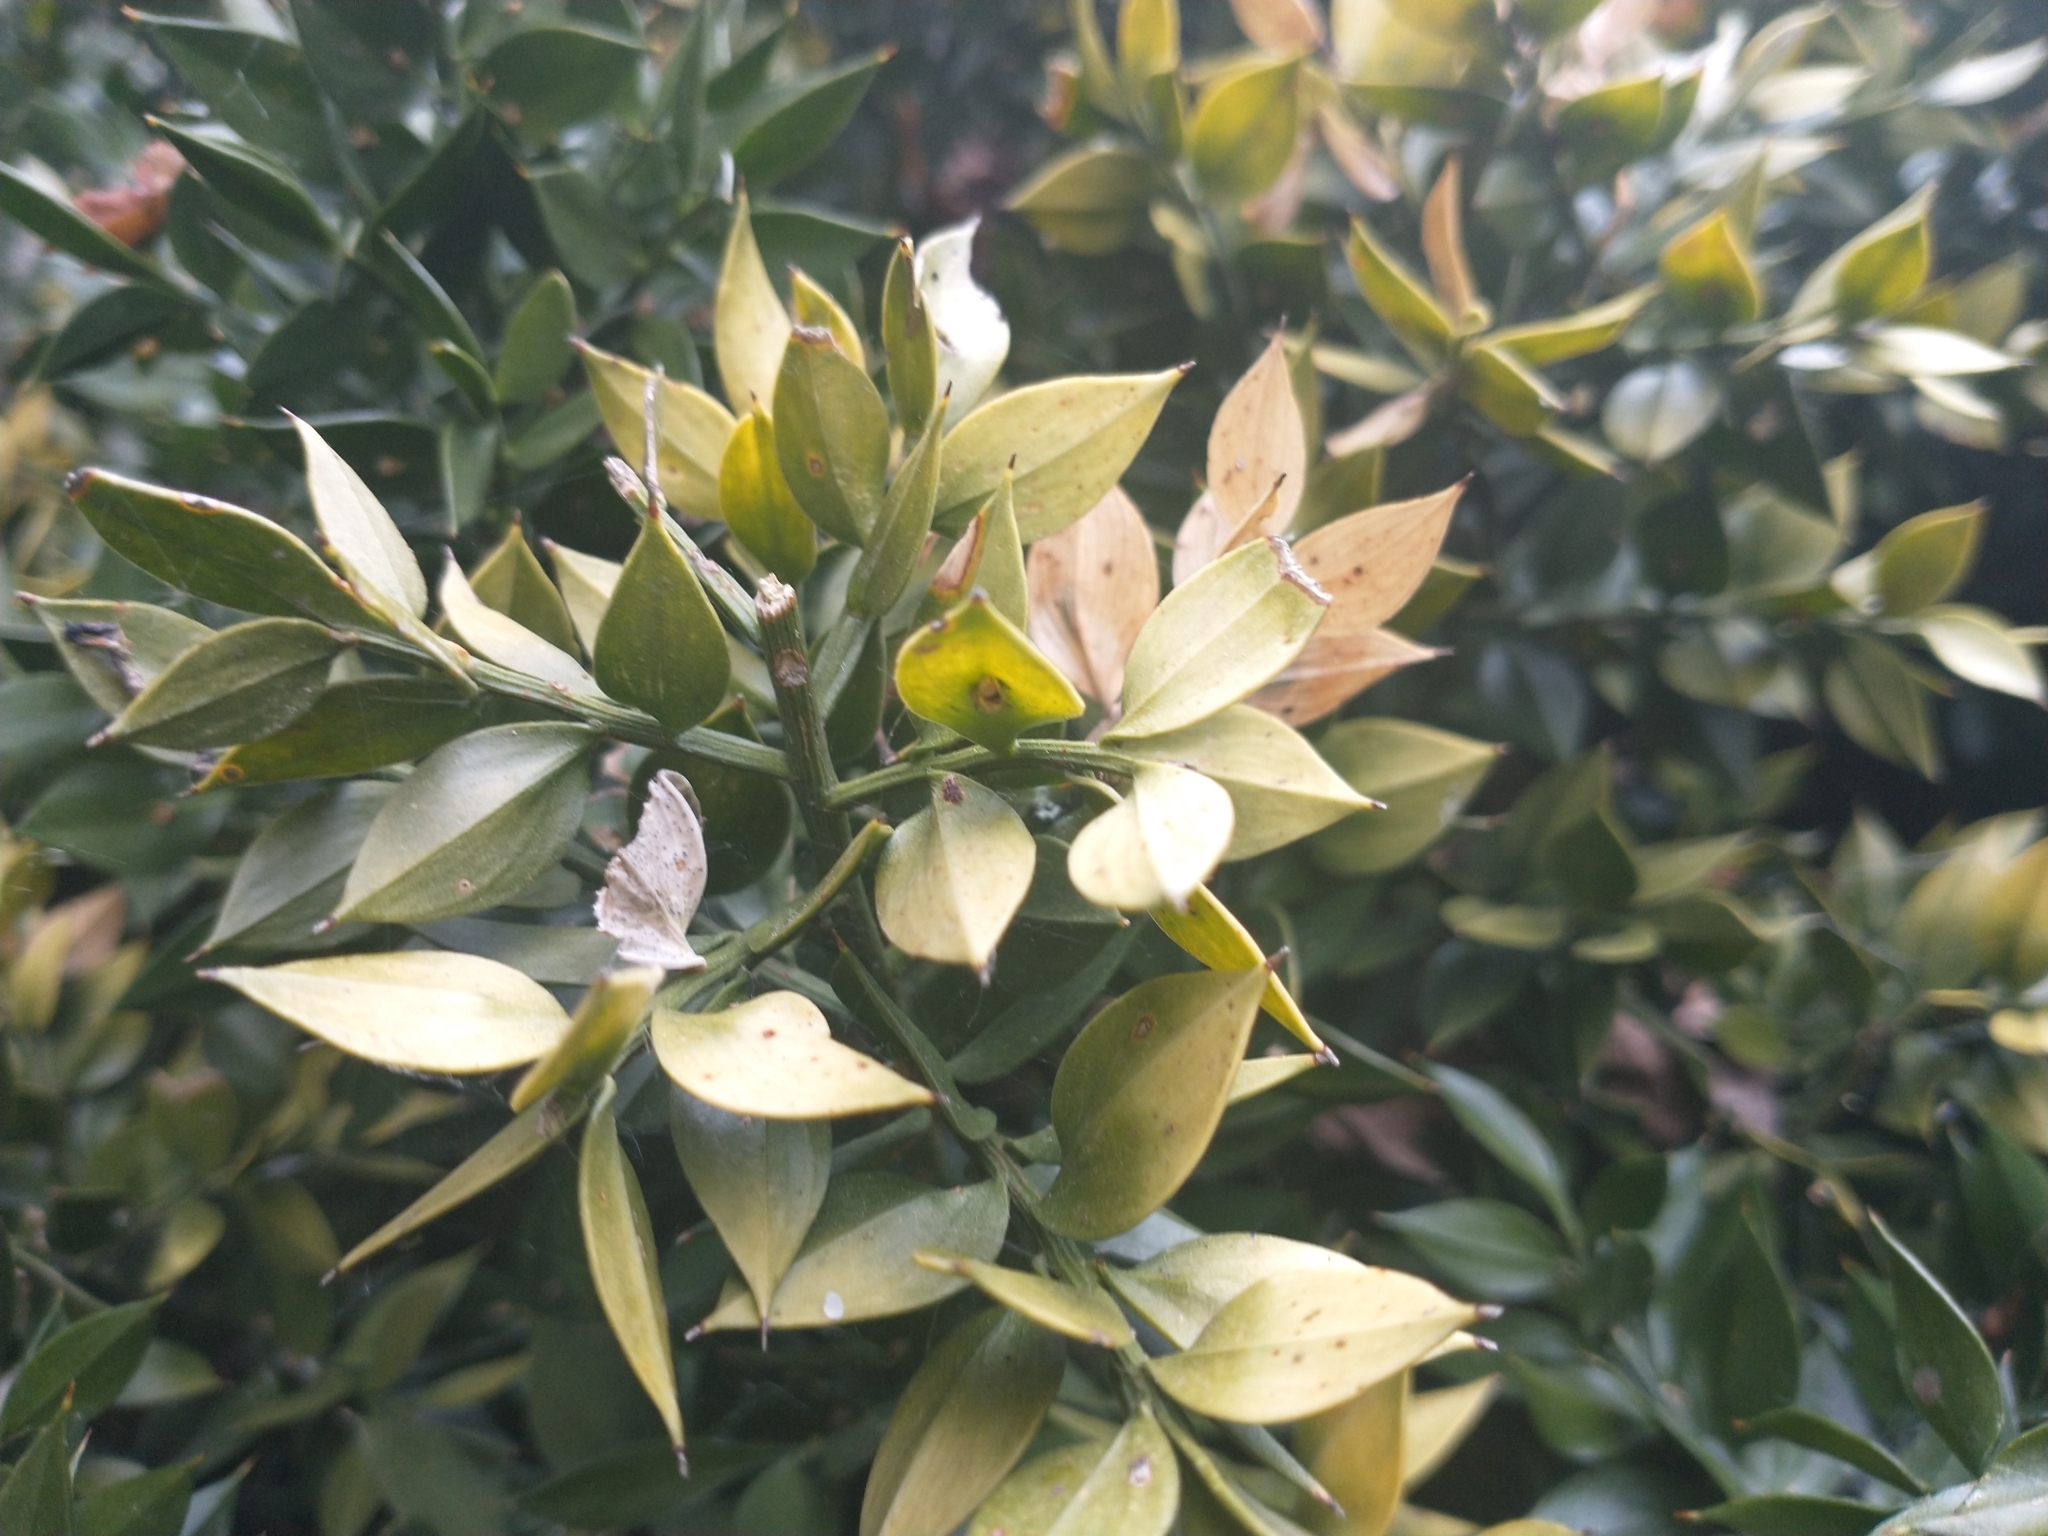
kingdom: Plantae
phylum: Tracheophyta
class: Liliopsida
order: Asparagales
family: Asparagaceae
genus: Ruscus
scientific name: Ruscus aculeatus
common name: Butcher's-broom
